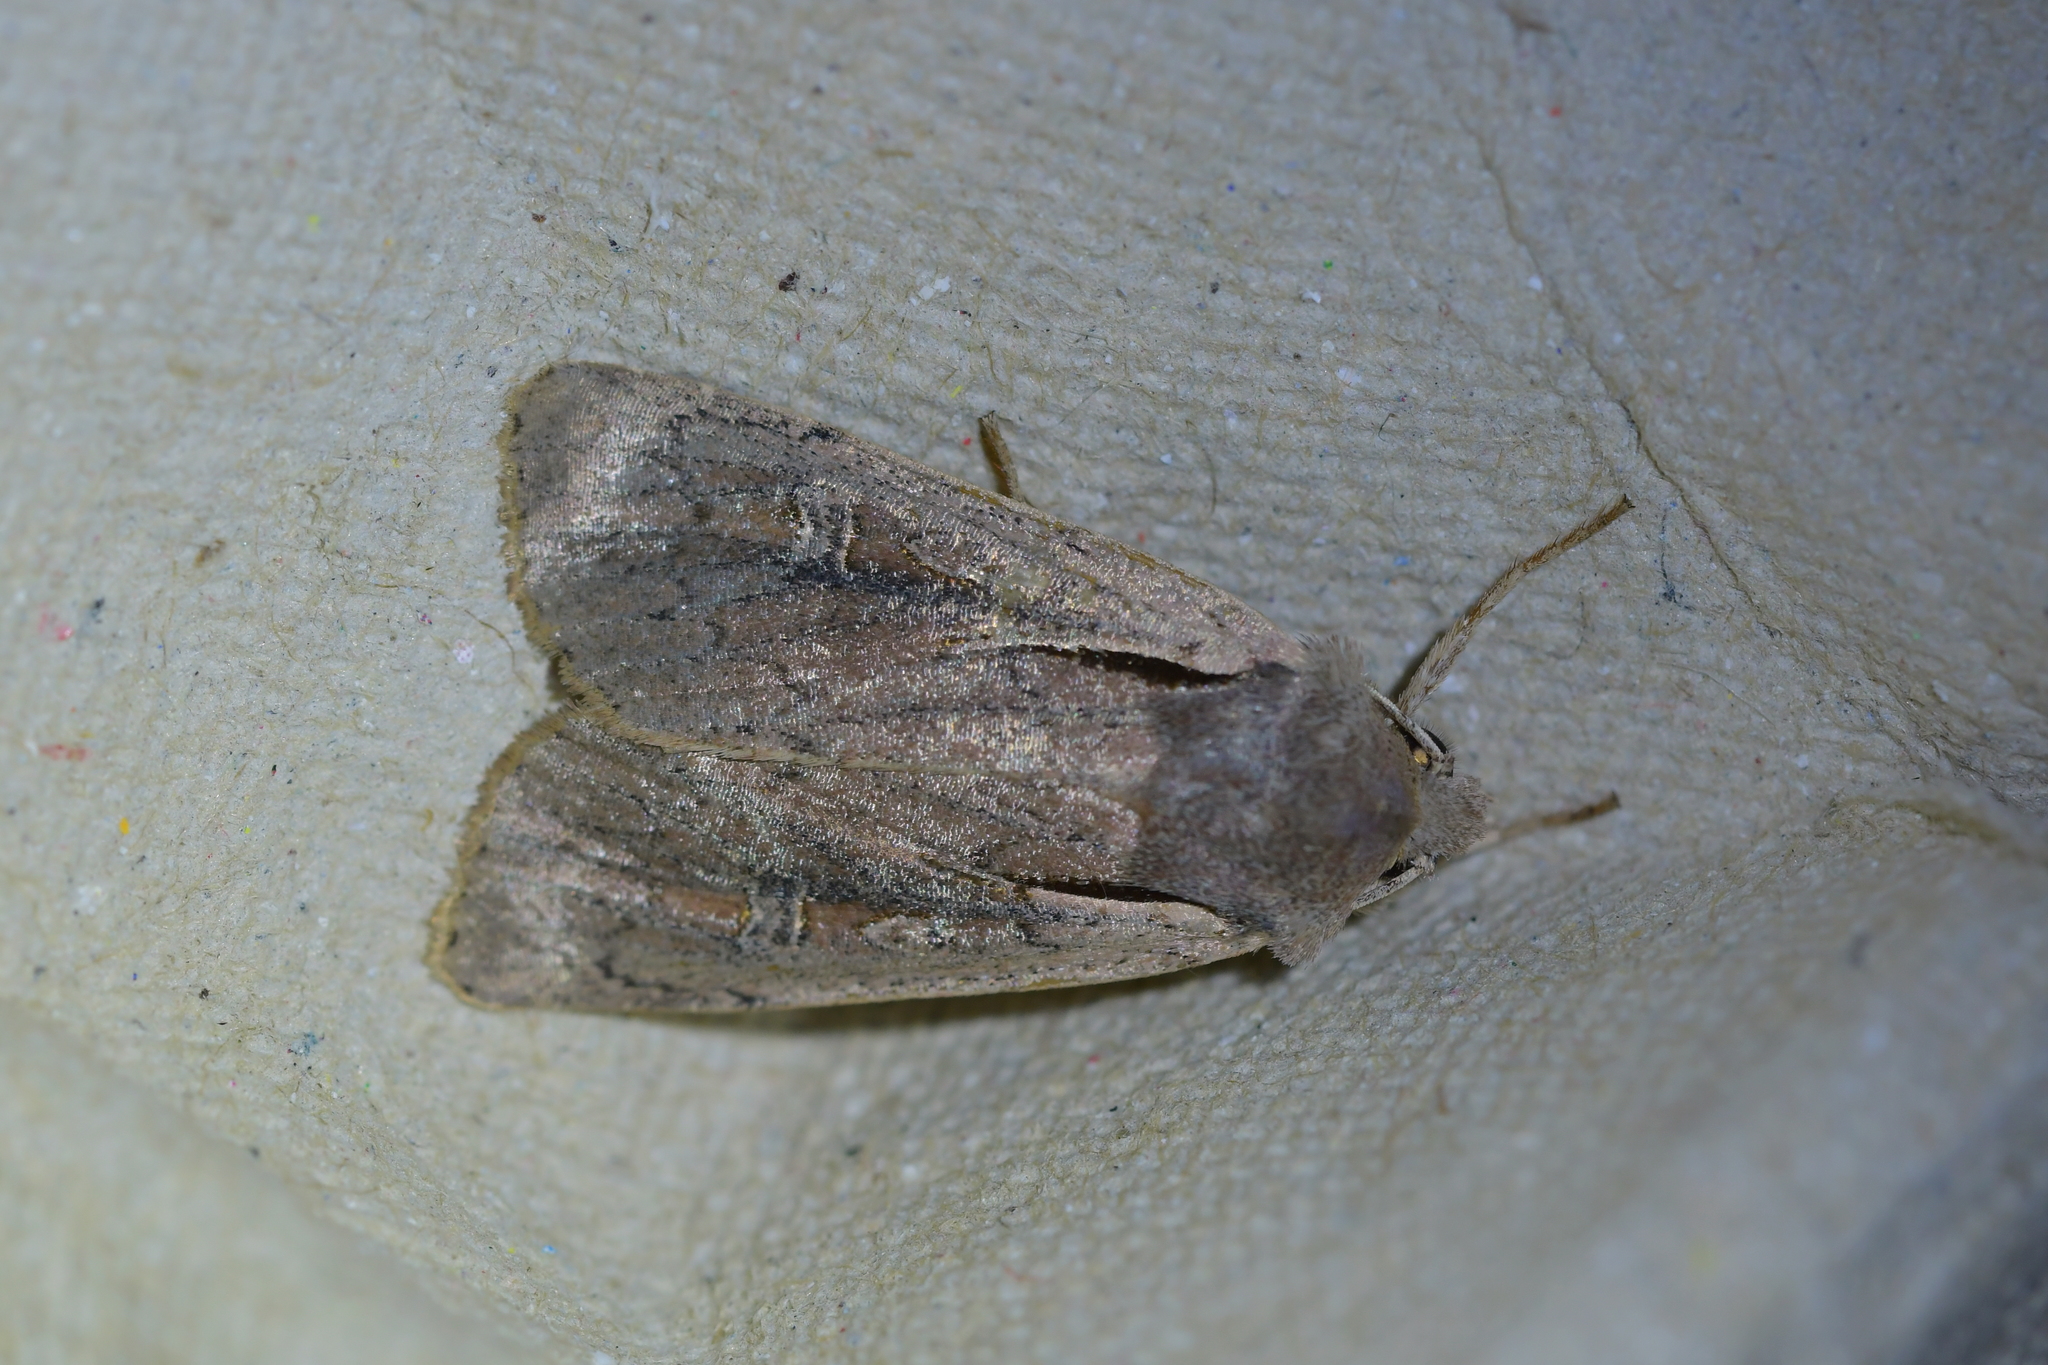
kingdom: Animalia
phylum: Arthropoda
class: Insecta
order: Lepidoptera
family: Noctuidae
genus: Ichneutica
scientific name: Ichneutica atristriga
